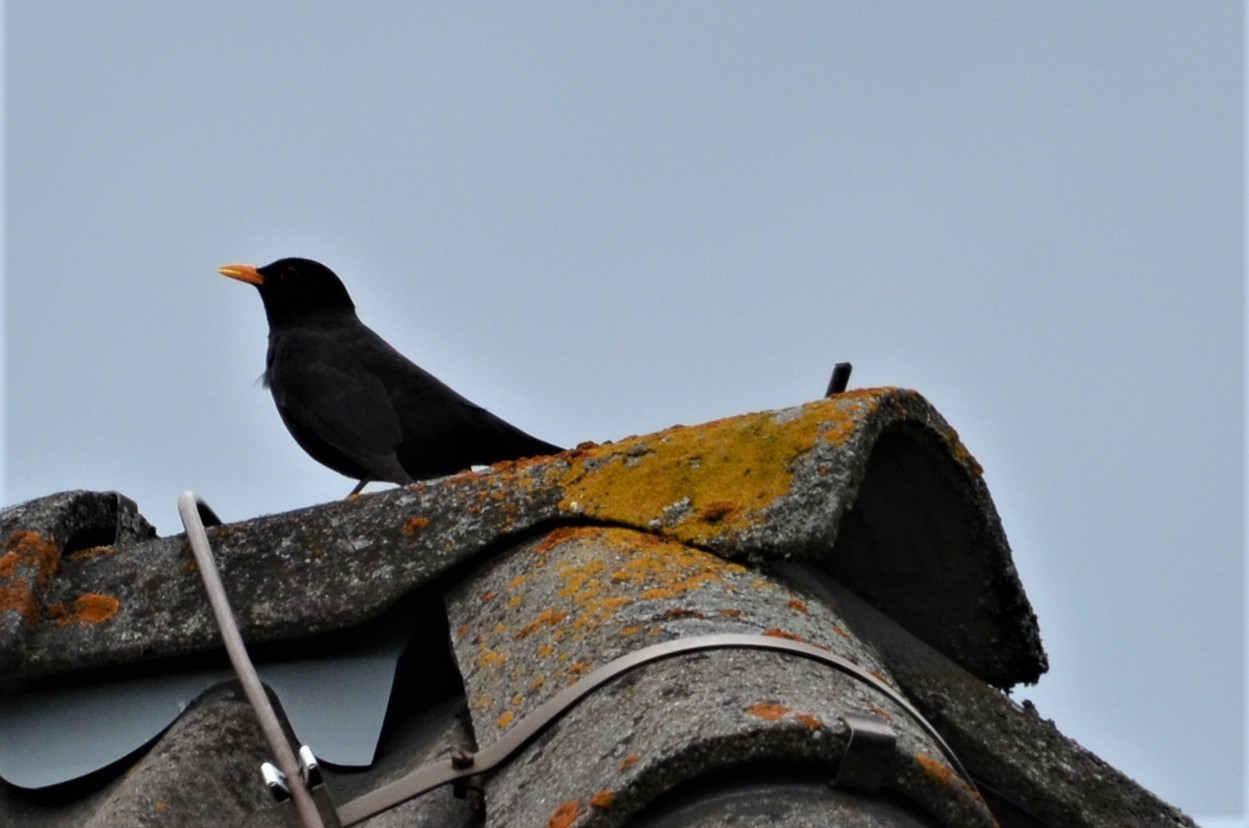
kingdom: Animalia
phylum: Chordata
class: Aves
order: Passeriformes
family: Turdidae
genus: Turdus
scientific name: Turdus merula
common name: Common blackbird
